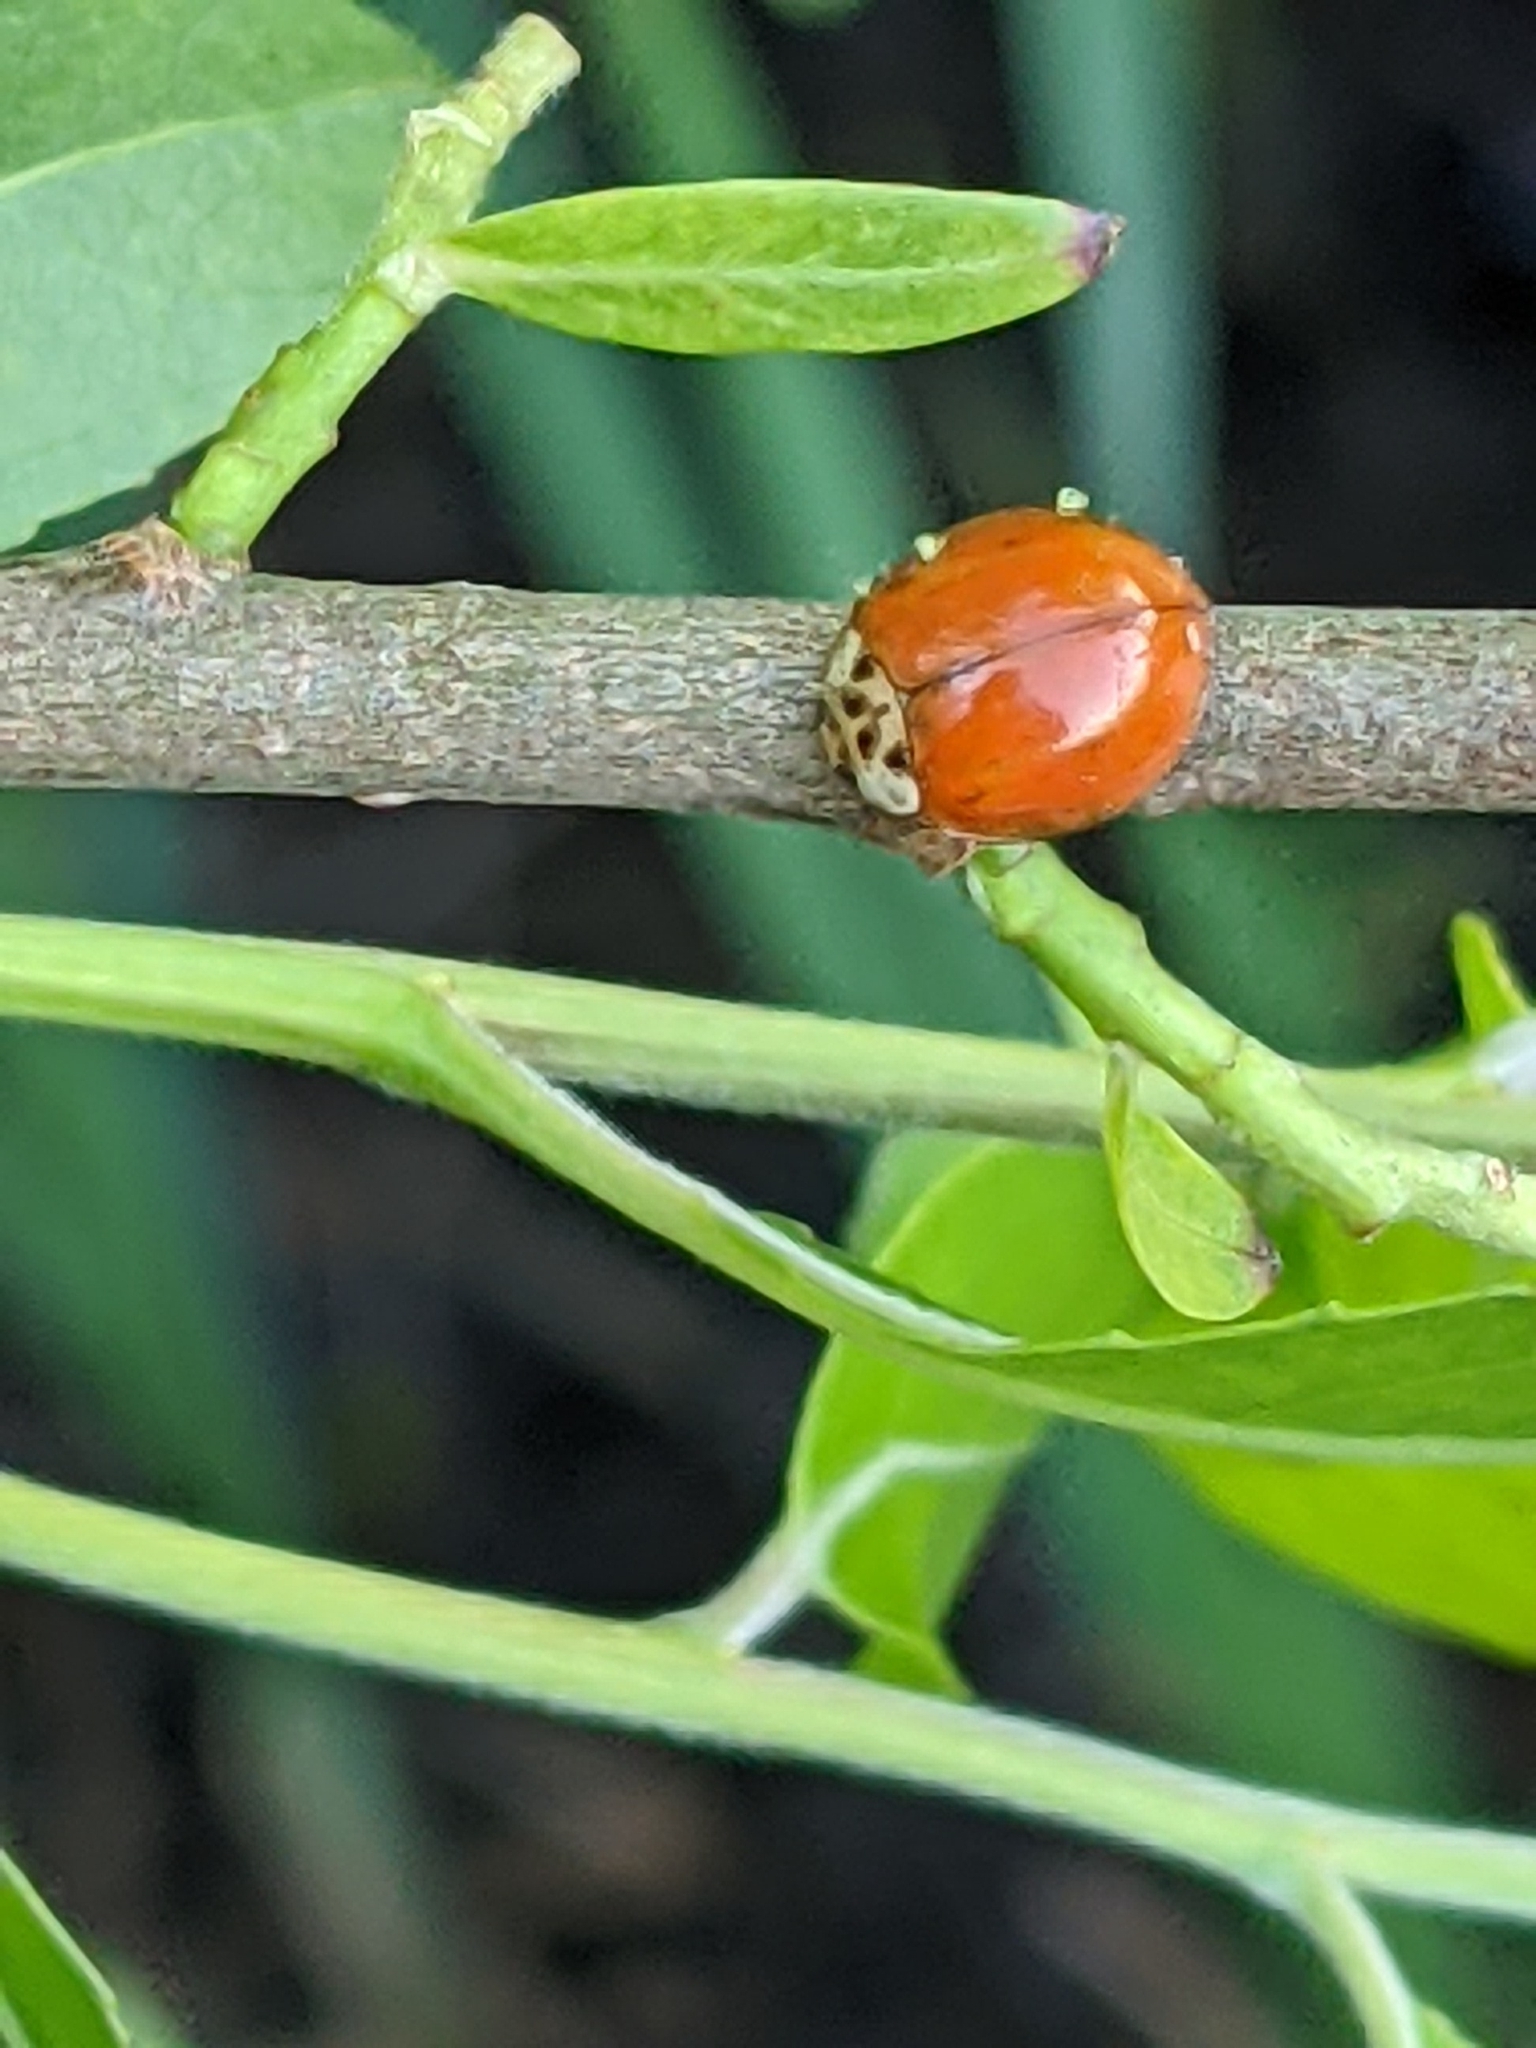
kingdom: Animalia
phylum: Arthropoda
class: Insecta
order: Coleoptera
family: Coccinellidae
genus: Harmonia
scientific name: Harmonia axyridis
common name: Harlequin ladybird
